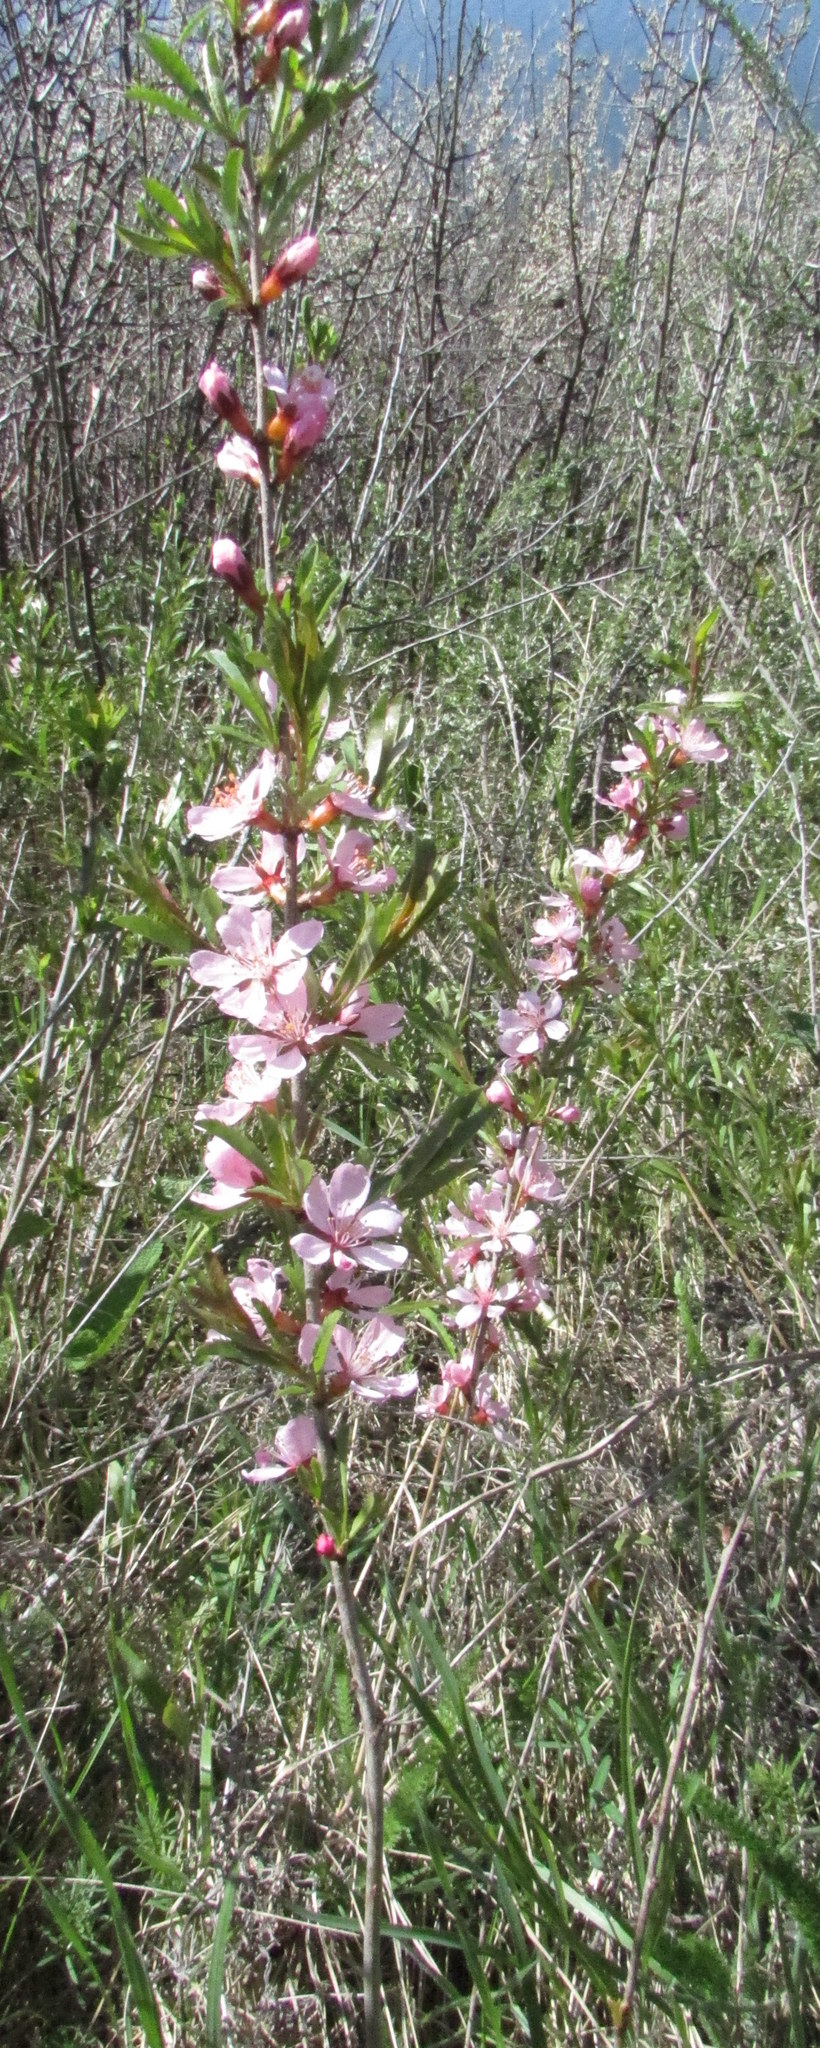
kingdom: Plantae
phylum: Tracheophyta
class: Magnoliopsida
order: Rosales
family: Rosaceae
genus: Prunus
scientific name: Prunus tenella
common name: Dwarf russian almond
